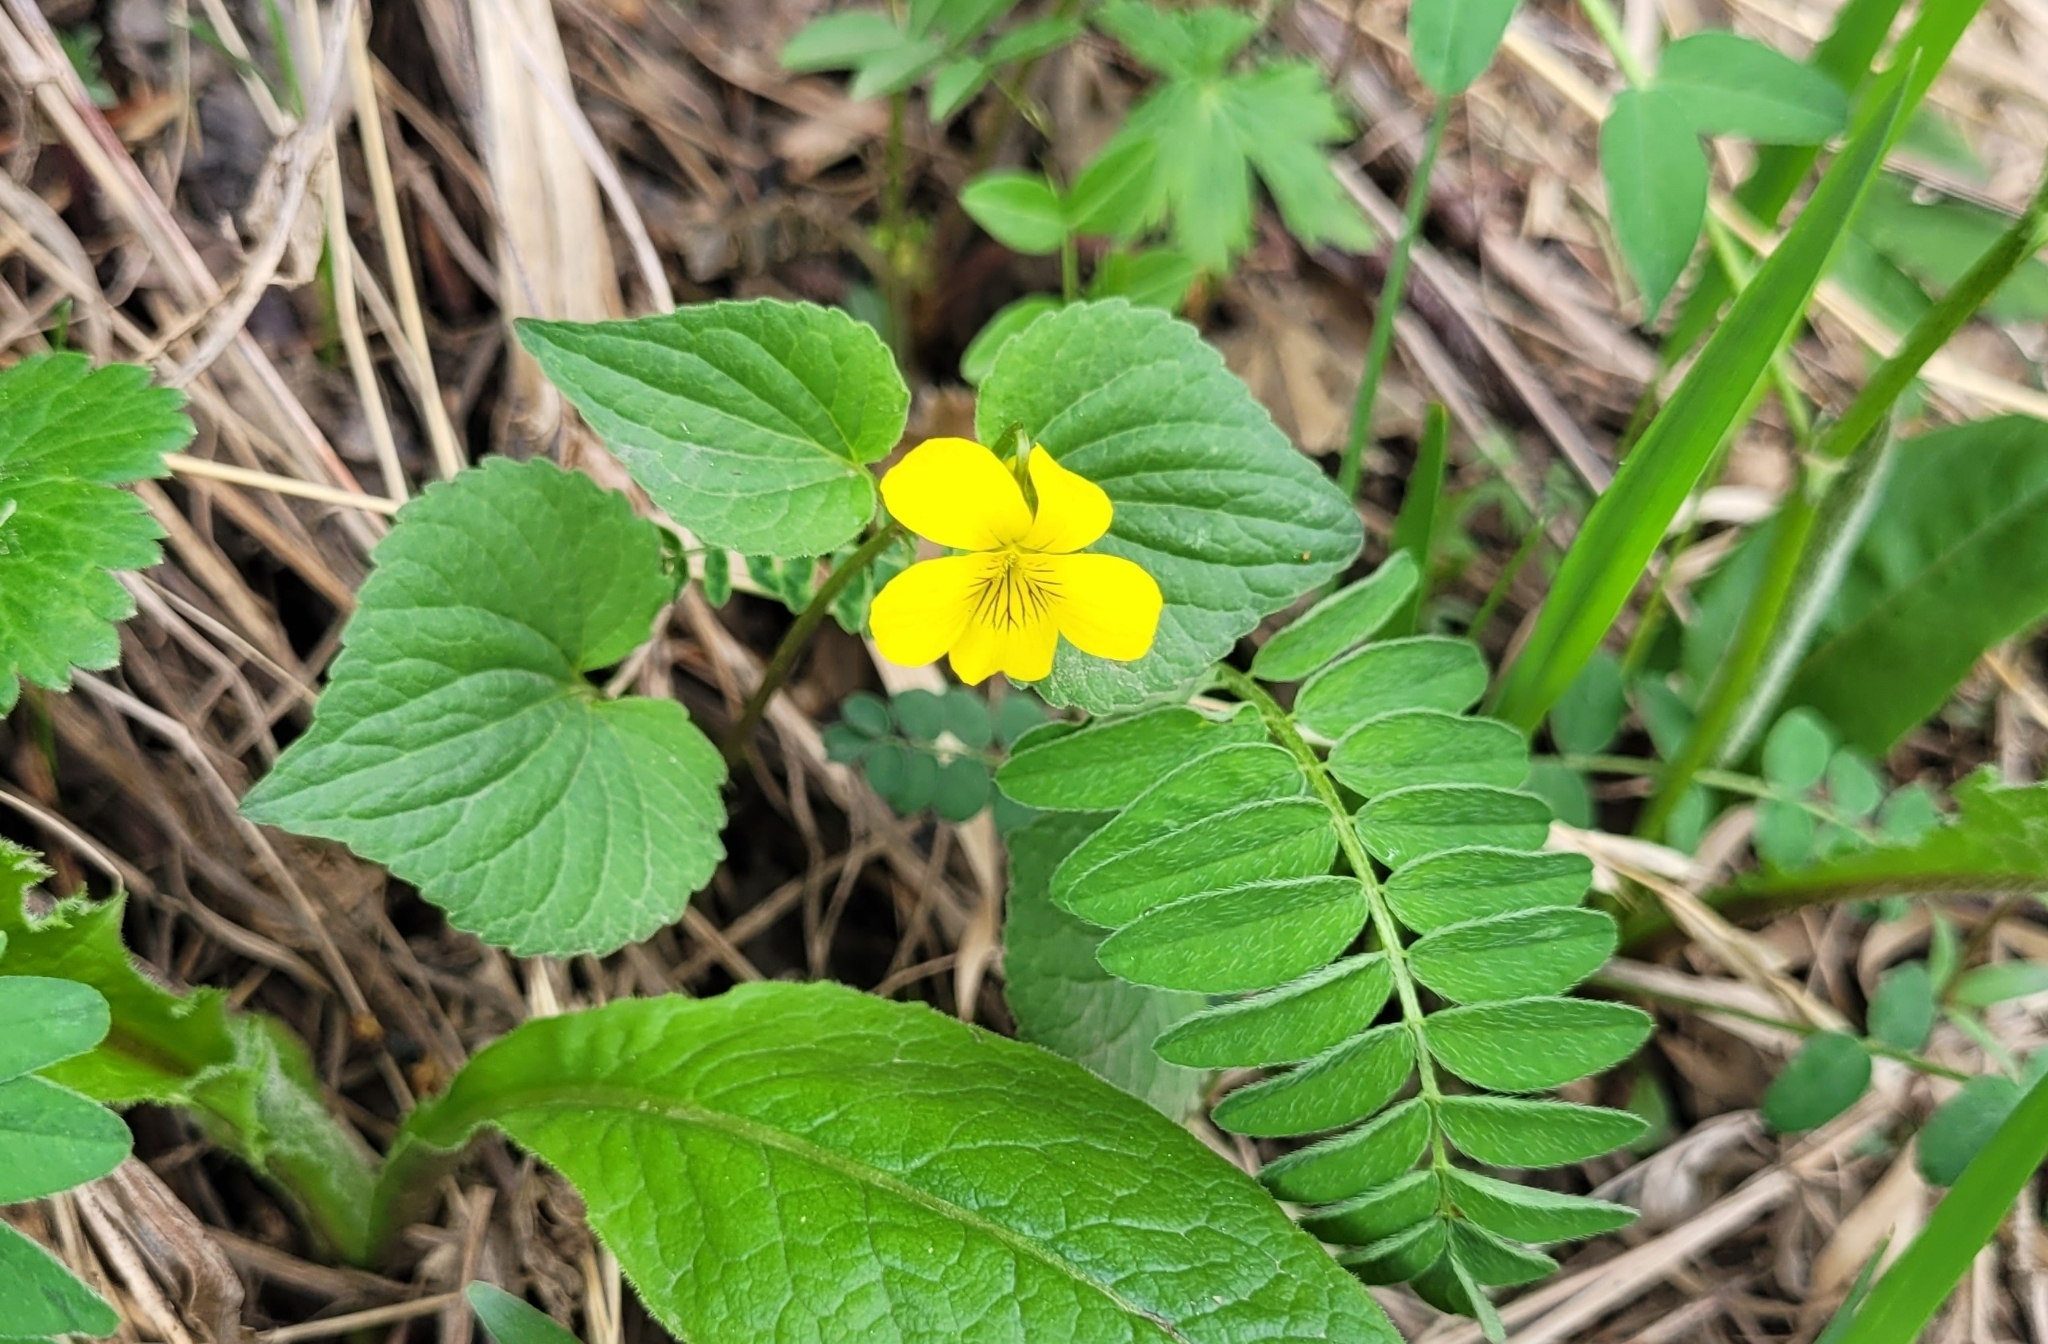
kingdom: Plantae
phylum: Tracheophyta
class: Magnoliopsida
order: Malpighiales
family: Violaceae
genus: Viola
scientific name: Viola acutifolia
